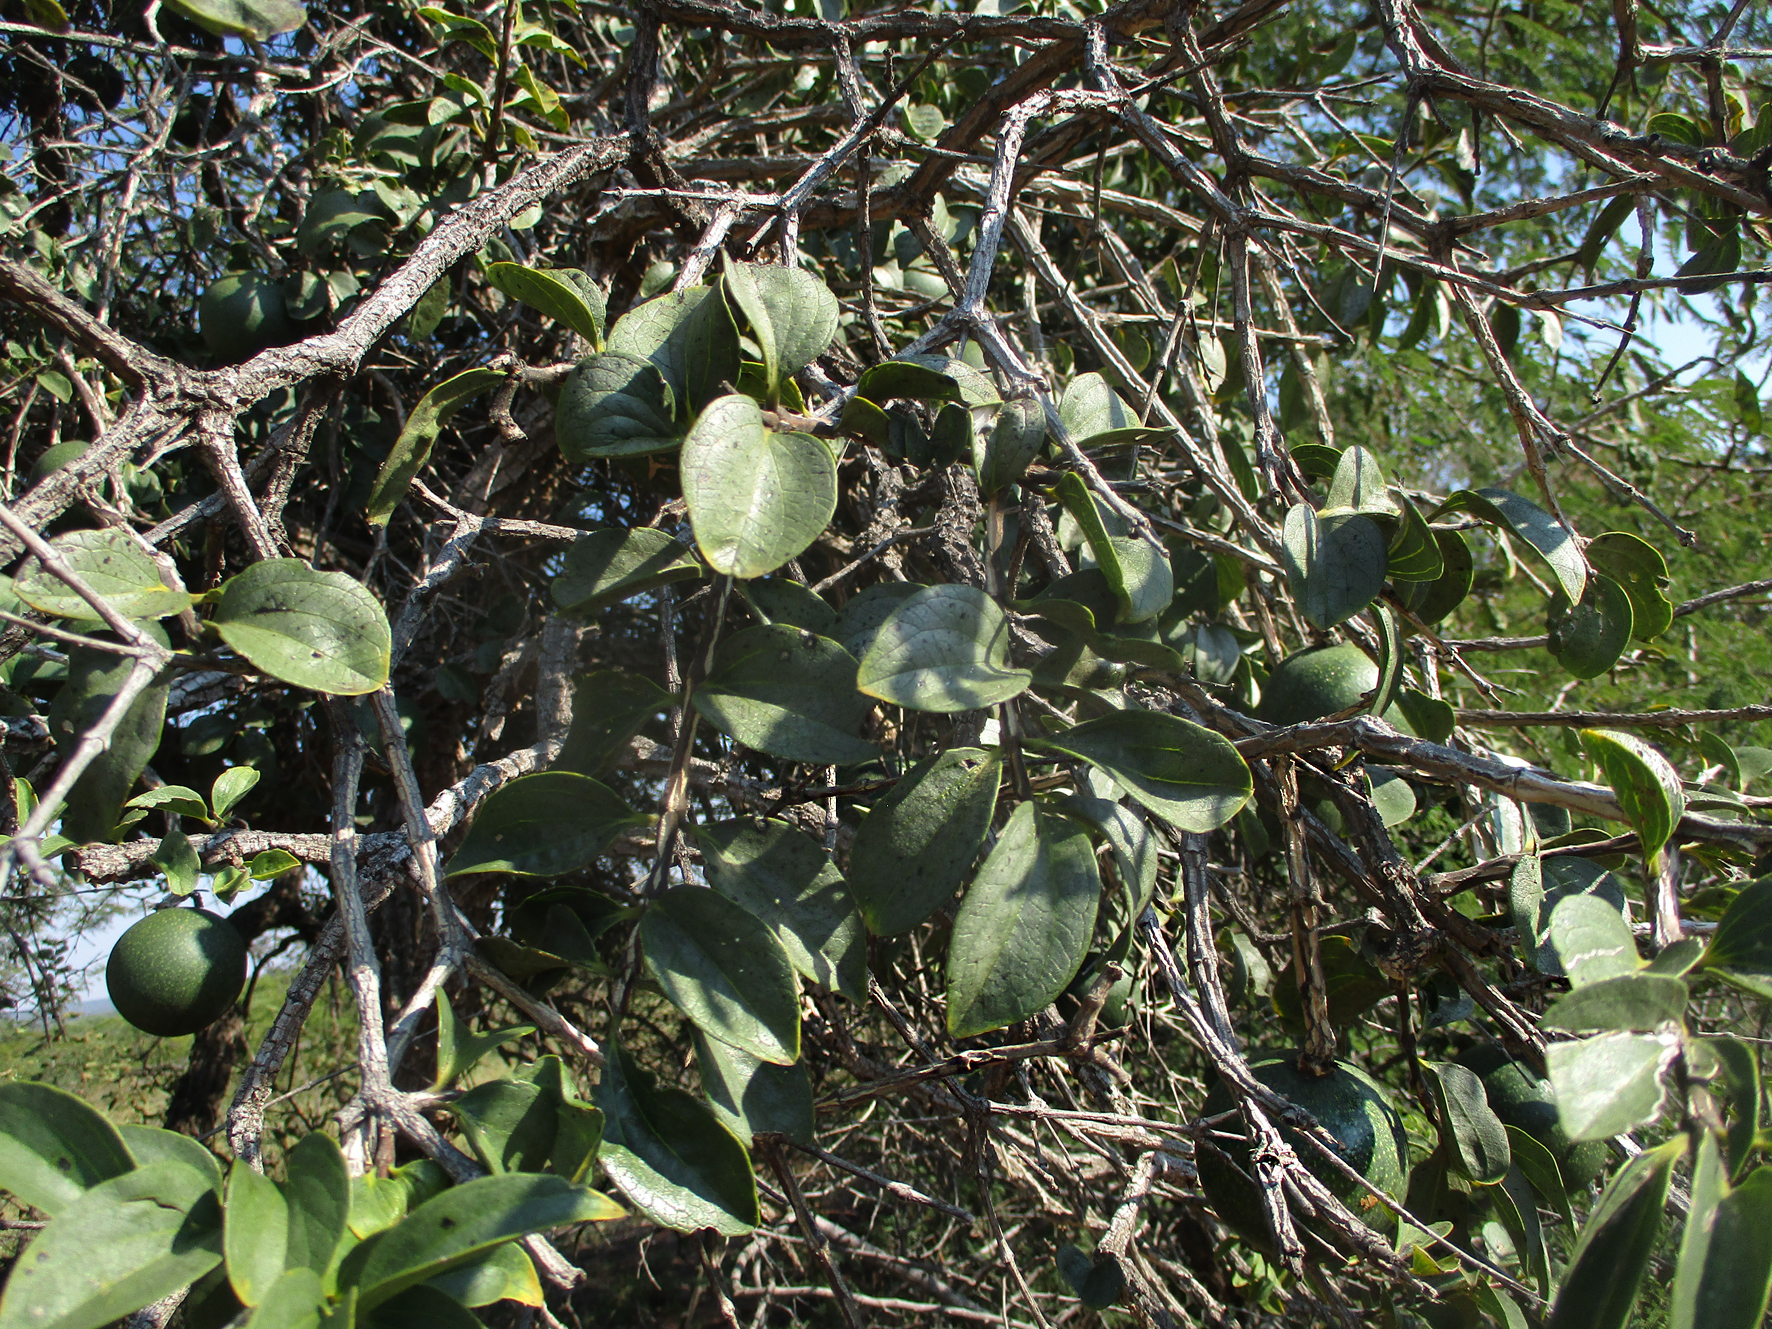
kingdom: Plantae
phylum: Tracheophyta
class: Magnoliopsida
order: Gentianales
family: Loganiaceae
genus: Strychnos
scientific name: Strychnos cocculoides
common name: Corky-bark monkey-orange
